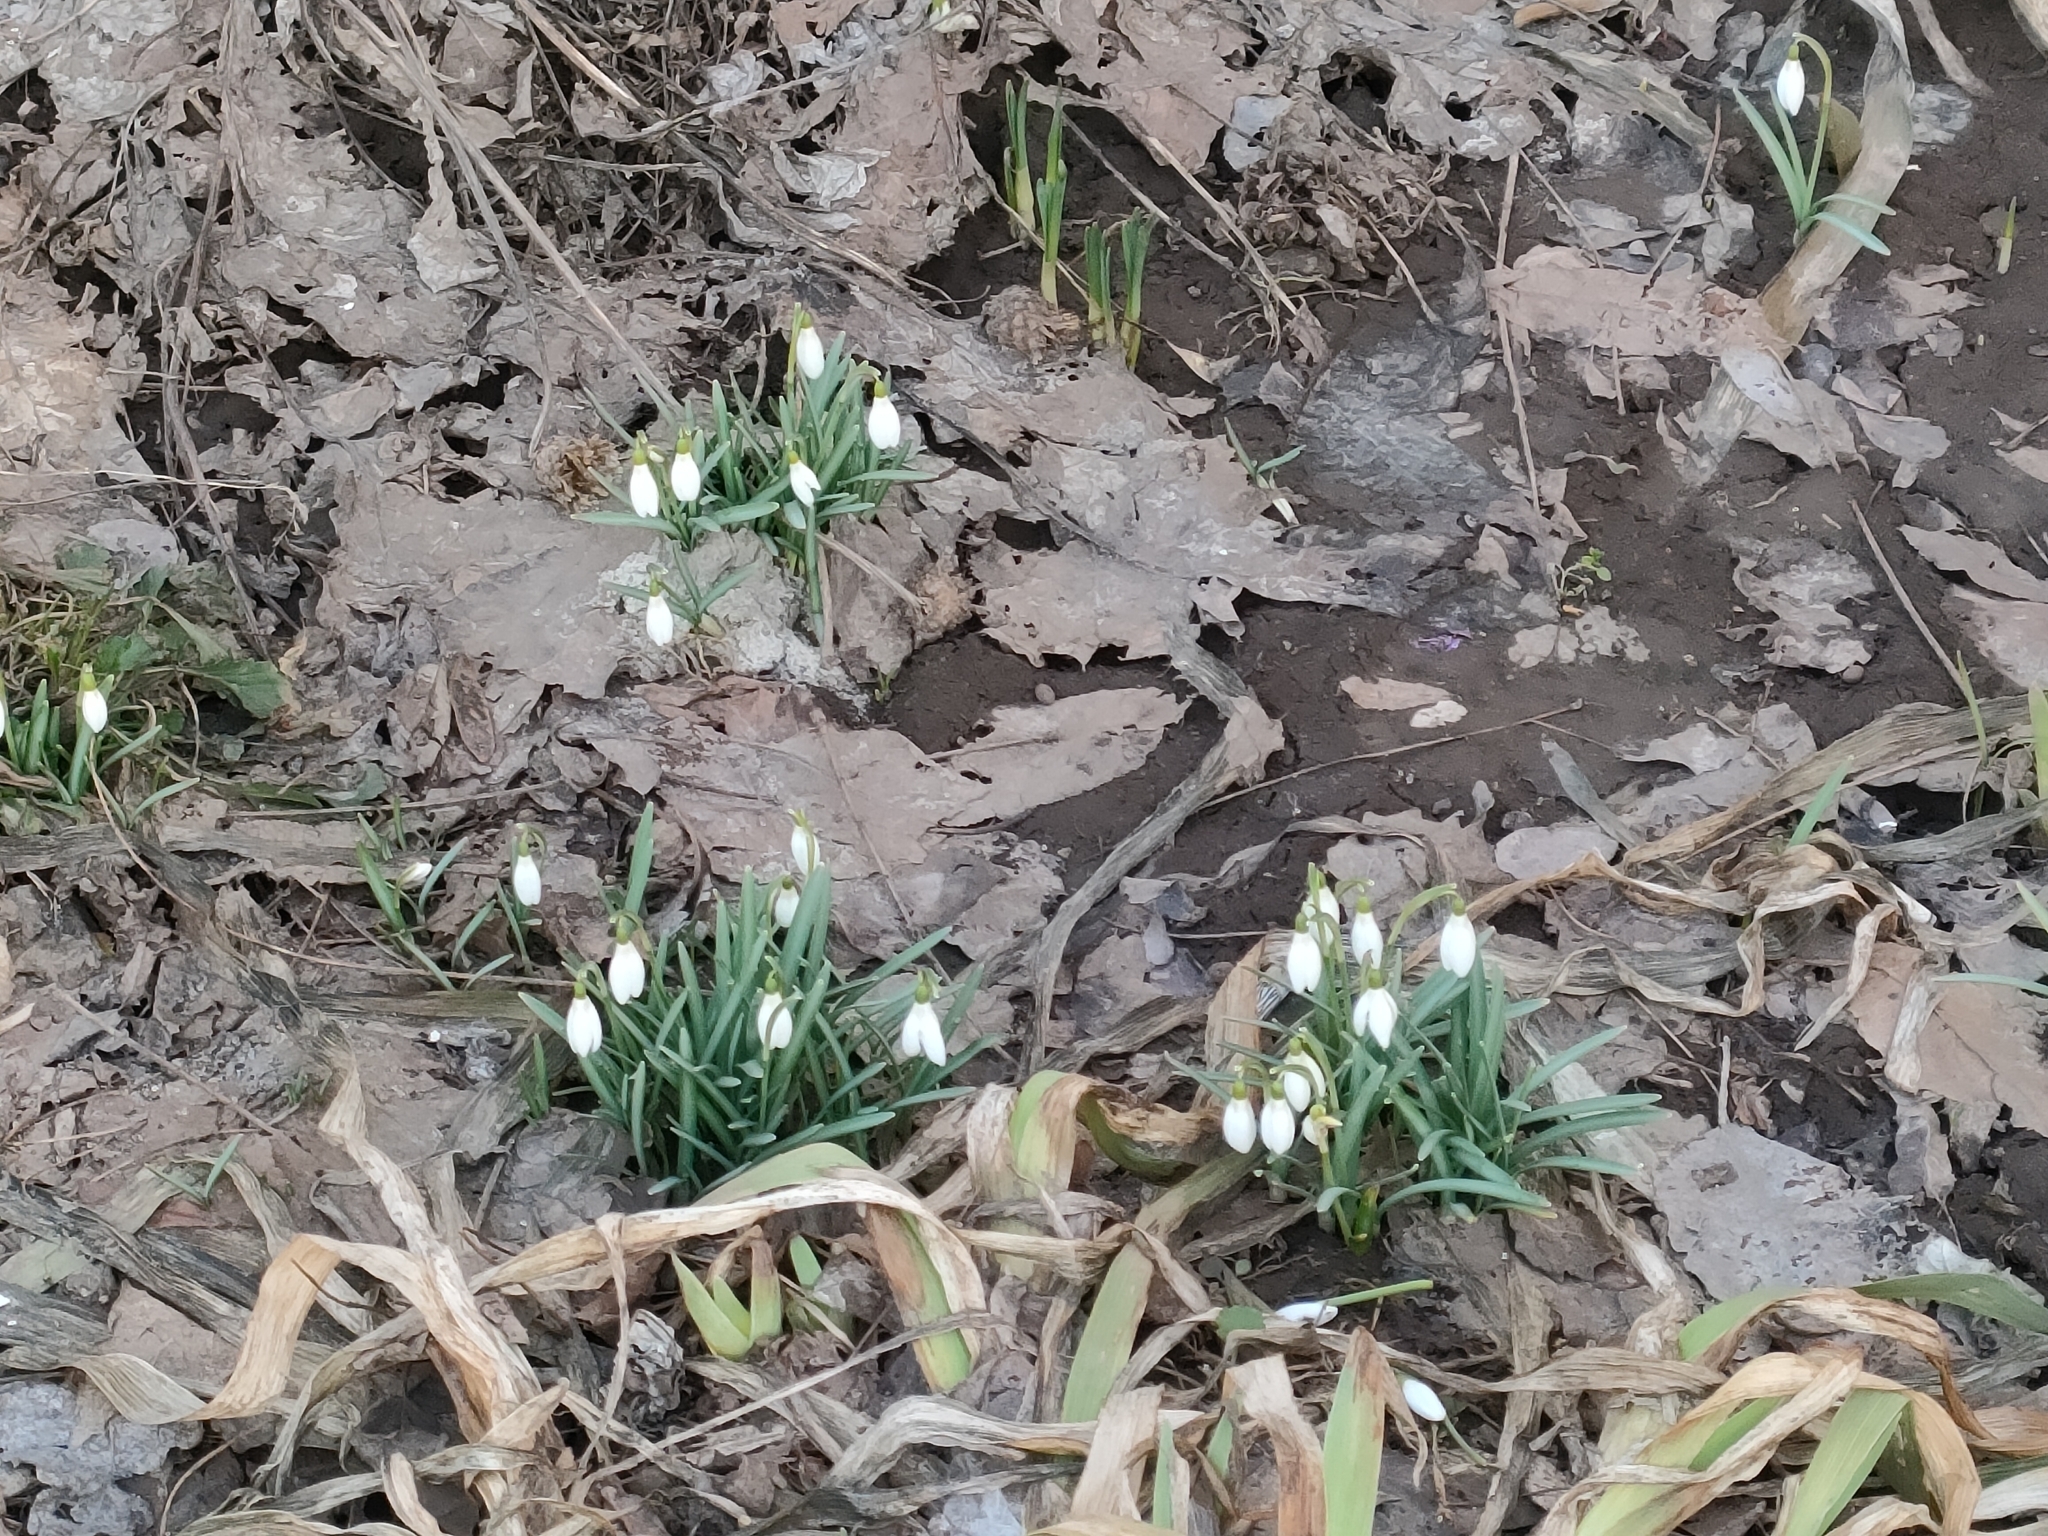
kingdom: Plantae
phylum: Tracheophyta
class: Liliopsida
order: Asparagales
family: Amaryllidaceae
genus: Galanthus
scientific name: Galanthus nivalis
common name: Snowdrop
